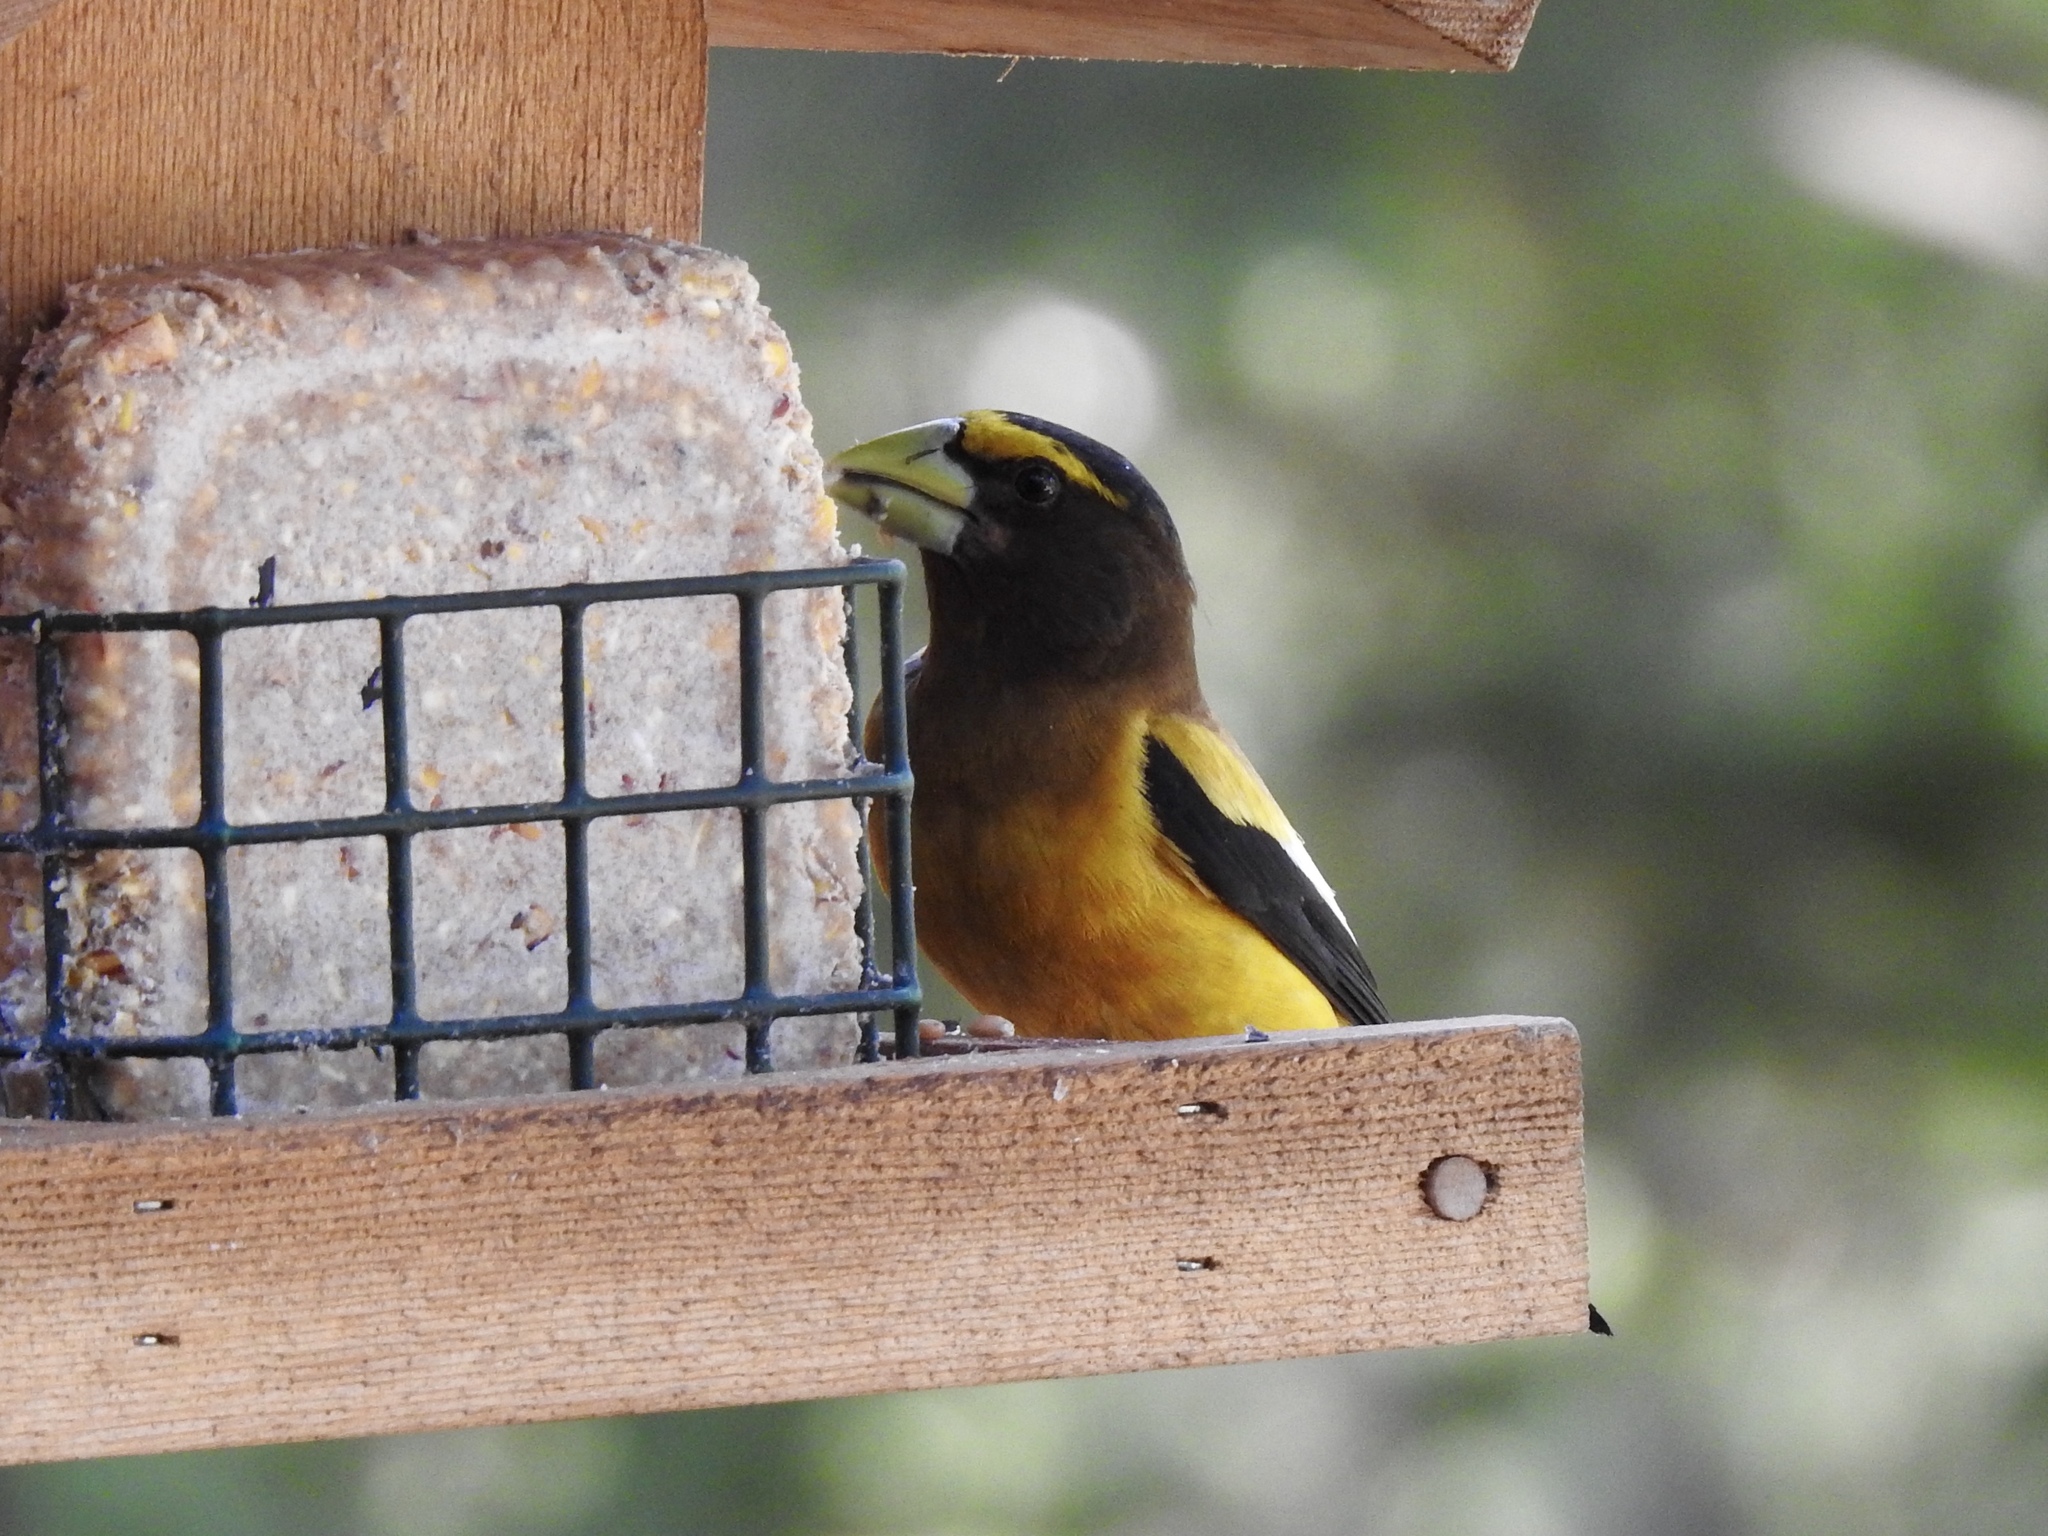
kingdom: Animalia
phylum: Chordata
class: Aves
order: Passeriformes
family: Fringillidae
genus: Hesperiphona
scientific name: Hesperiphona vespertina
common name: Evening grosbeak
